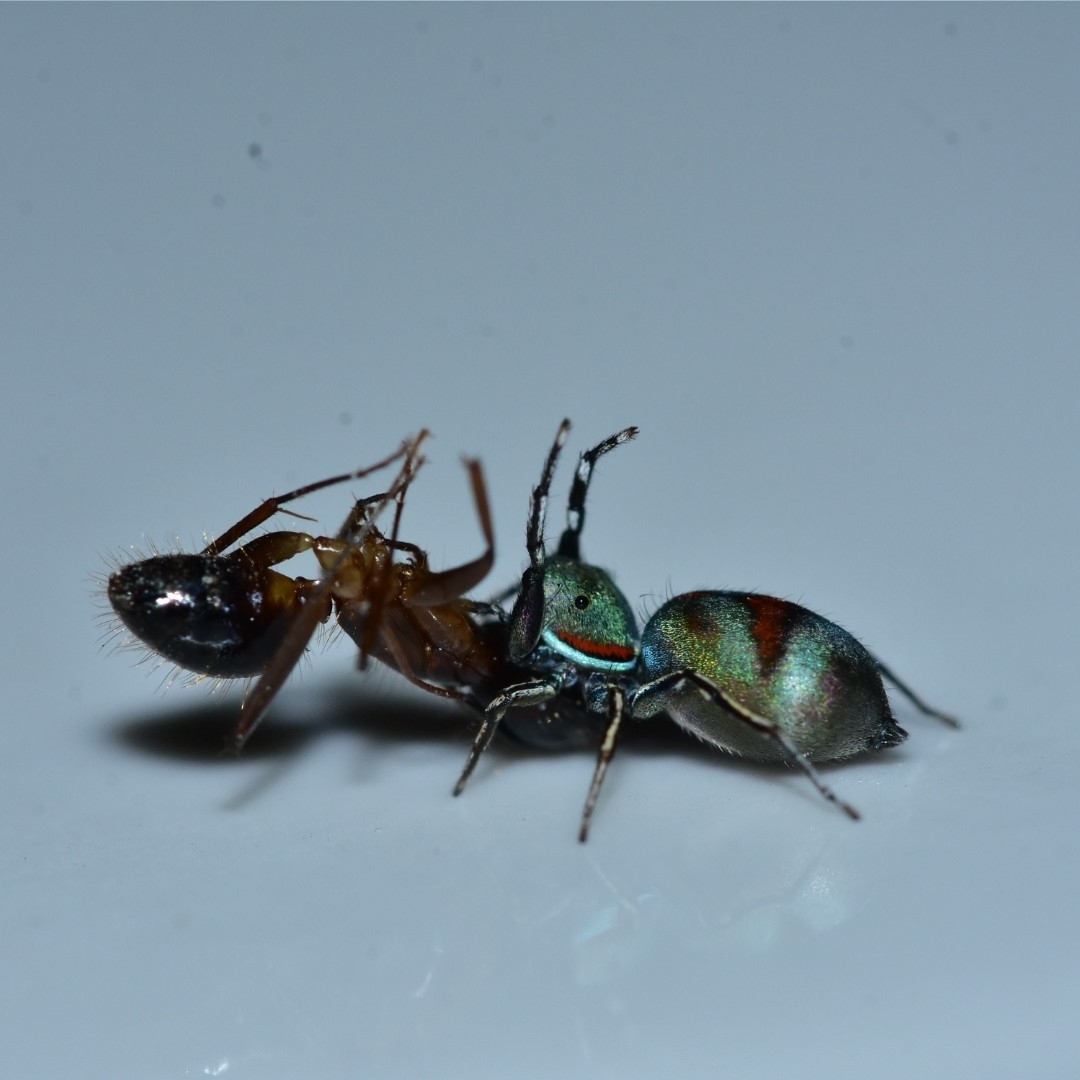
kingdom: Animalia
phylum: Arthropoda
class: Arachnida
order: Araneae
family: Salticidae
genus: Siler
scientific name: Siler semiglaucus
